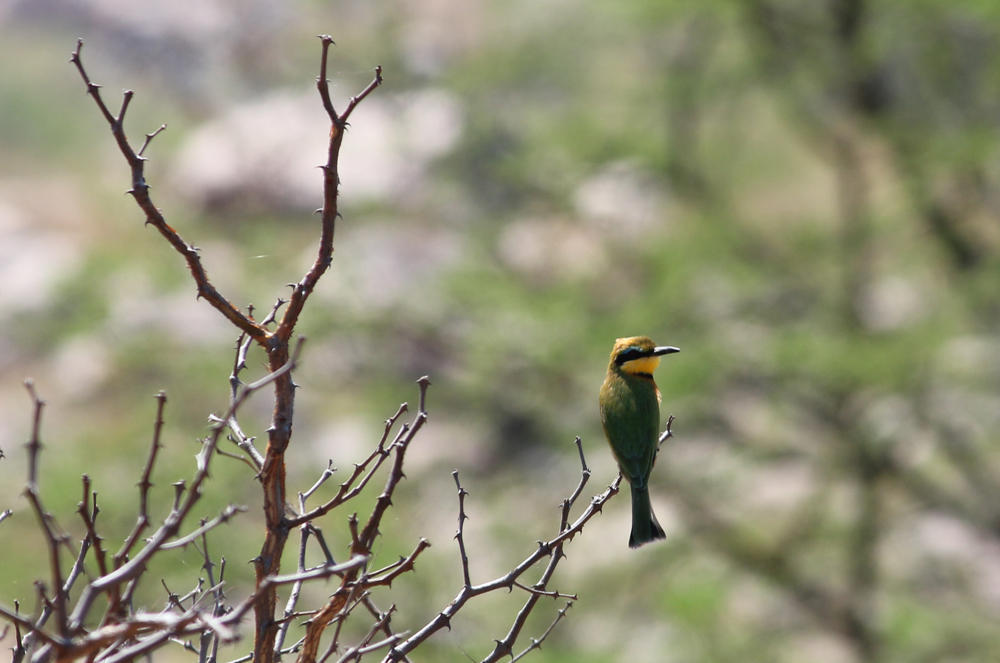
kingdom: Animalia
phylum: Chordata
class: Aves
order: Coraciiformes
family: Meropidae
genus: Merops
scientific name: Merops pusillus
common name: Little bee-eater
